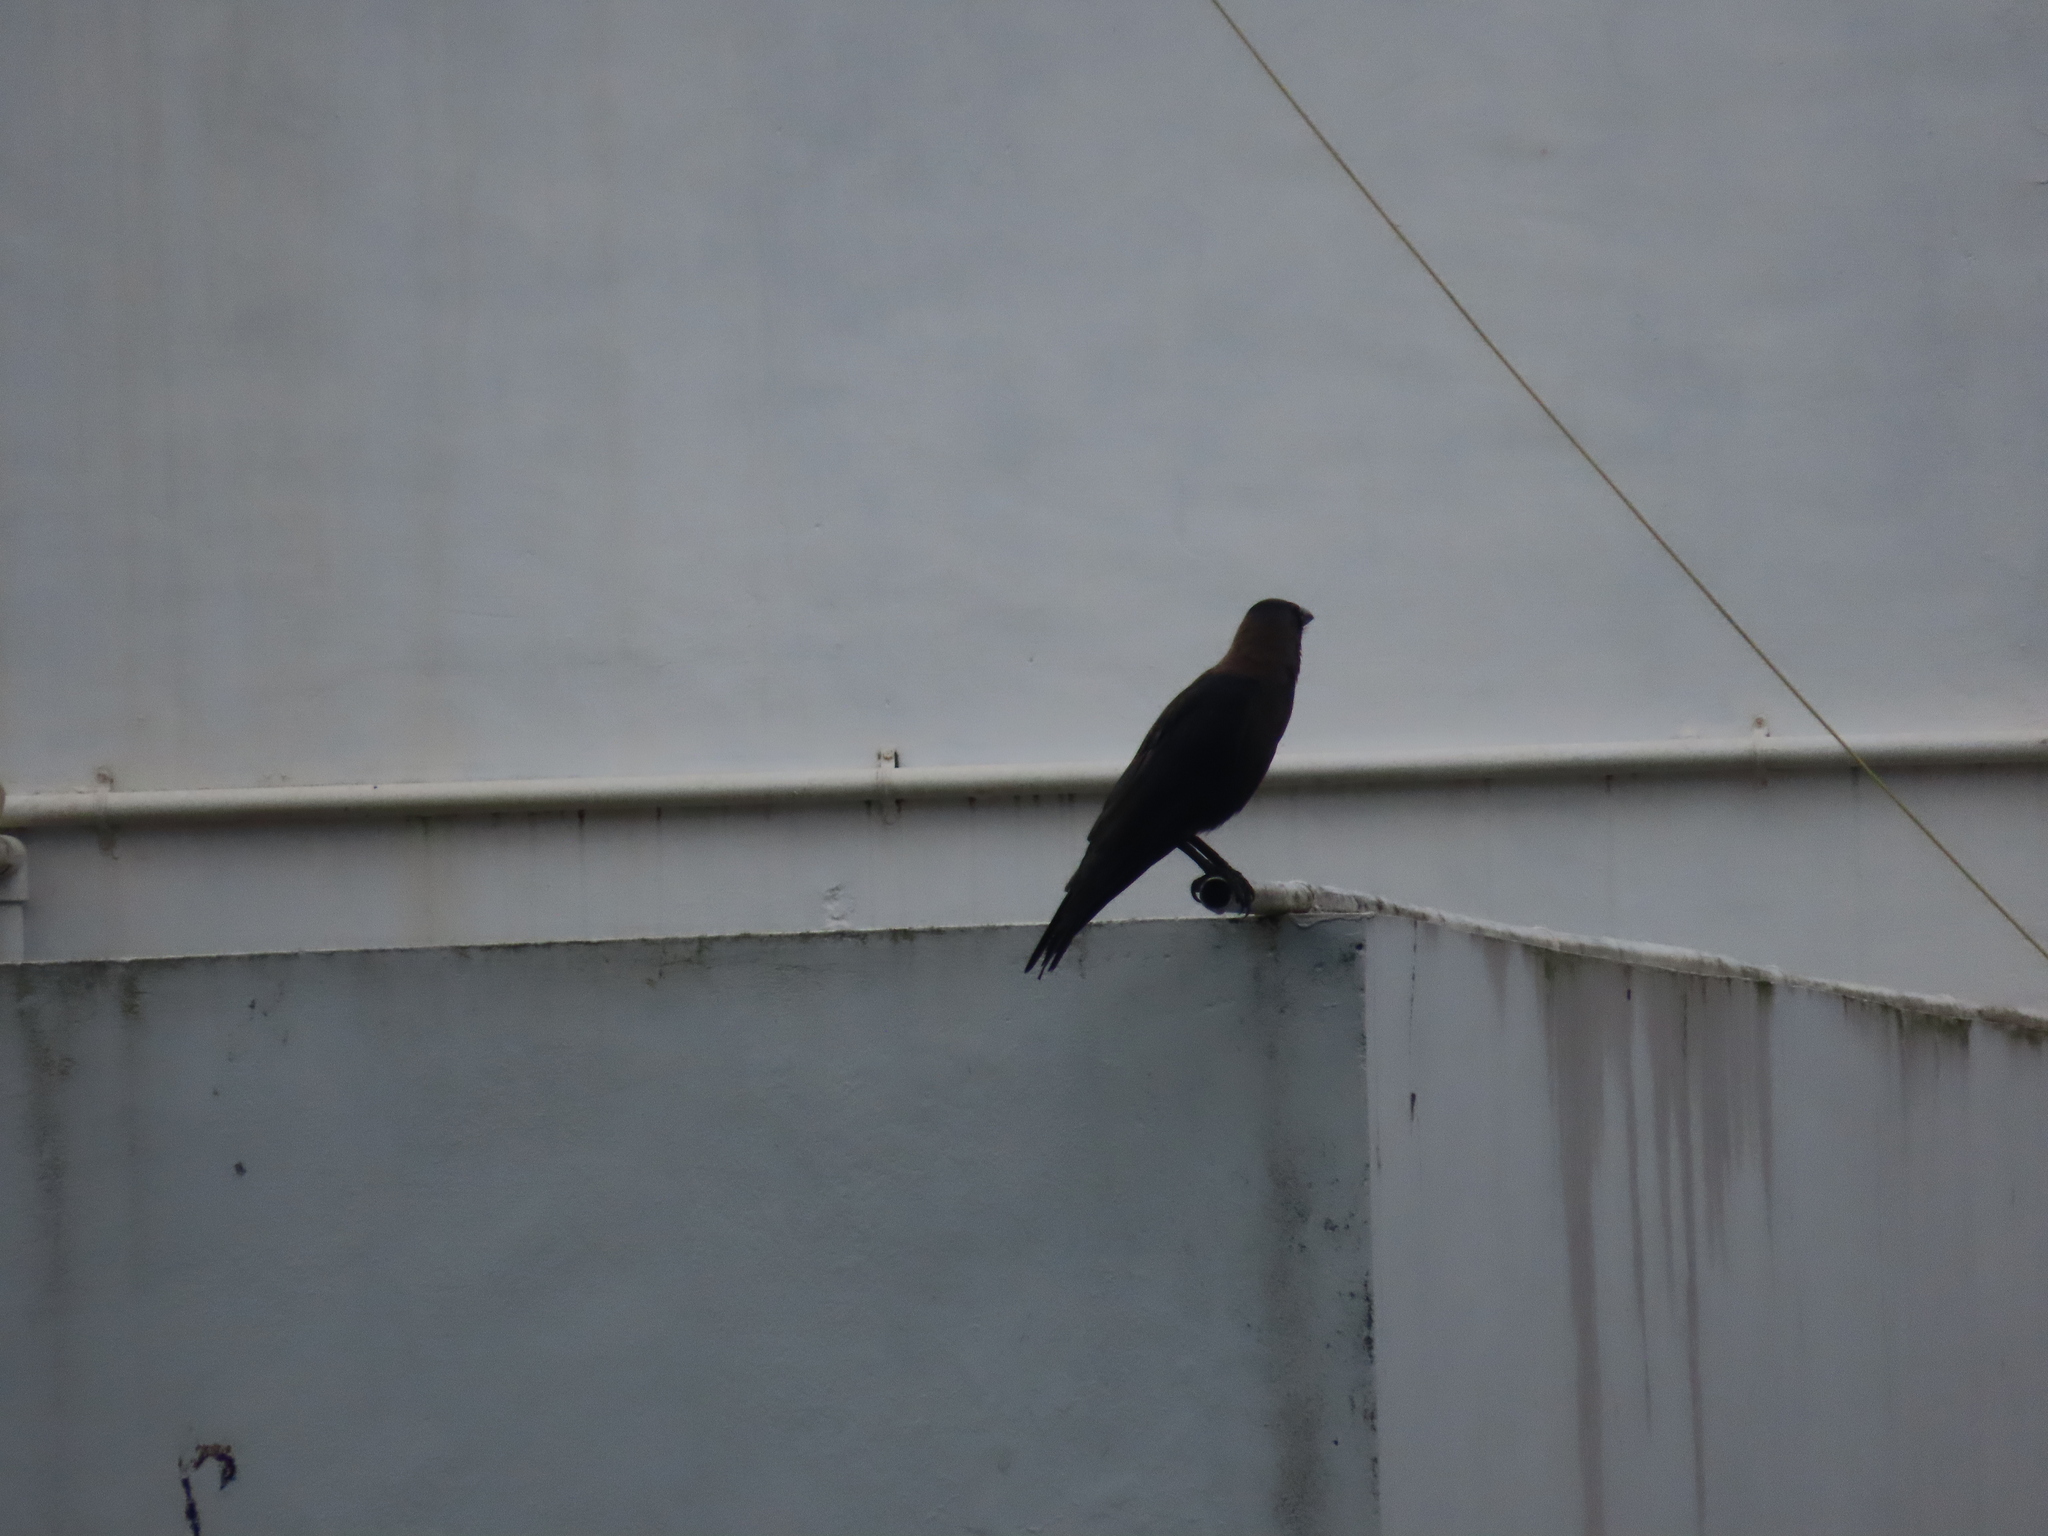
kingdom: Animalia
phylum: Chordata
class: Aves
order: Passeriformes
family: Corvidae
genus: Corvus
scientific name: Corvus splendens
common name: House crow
